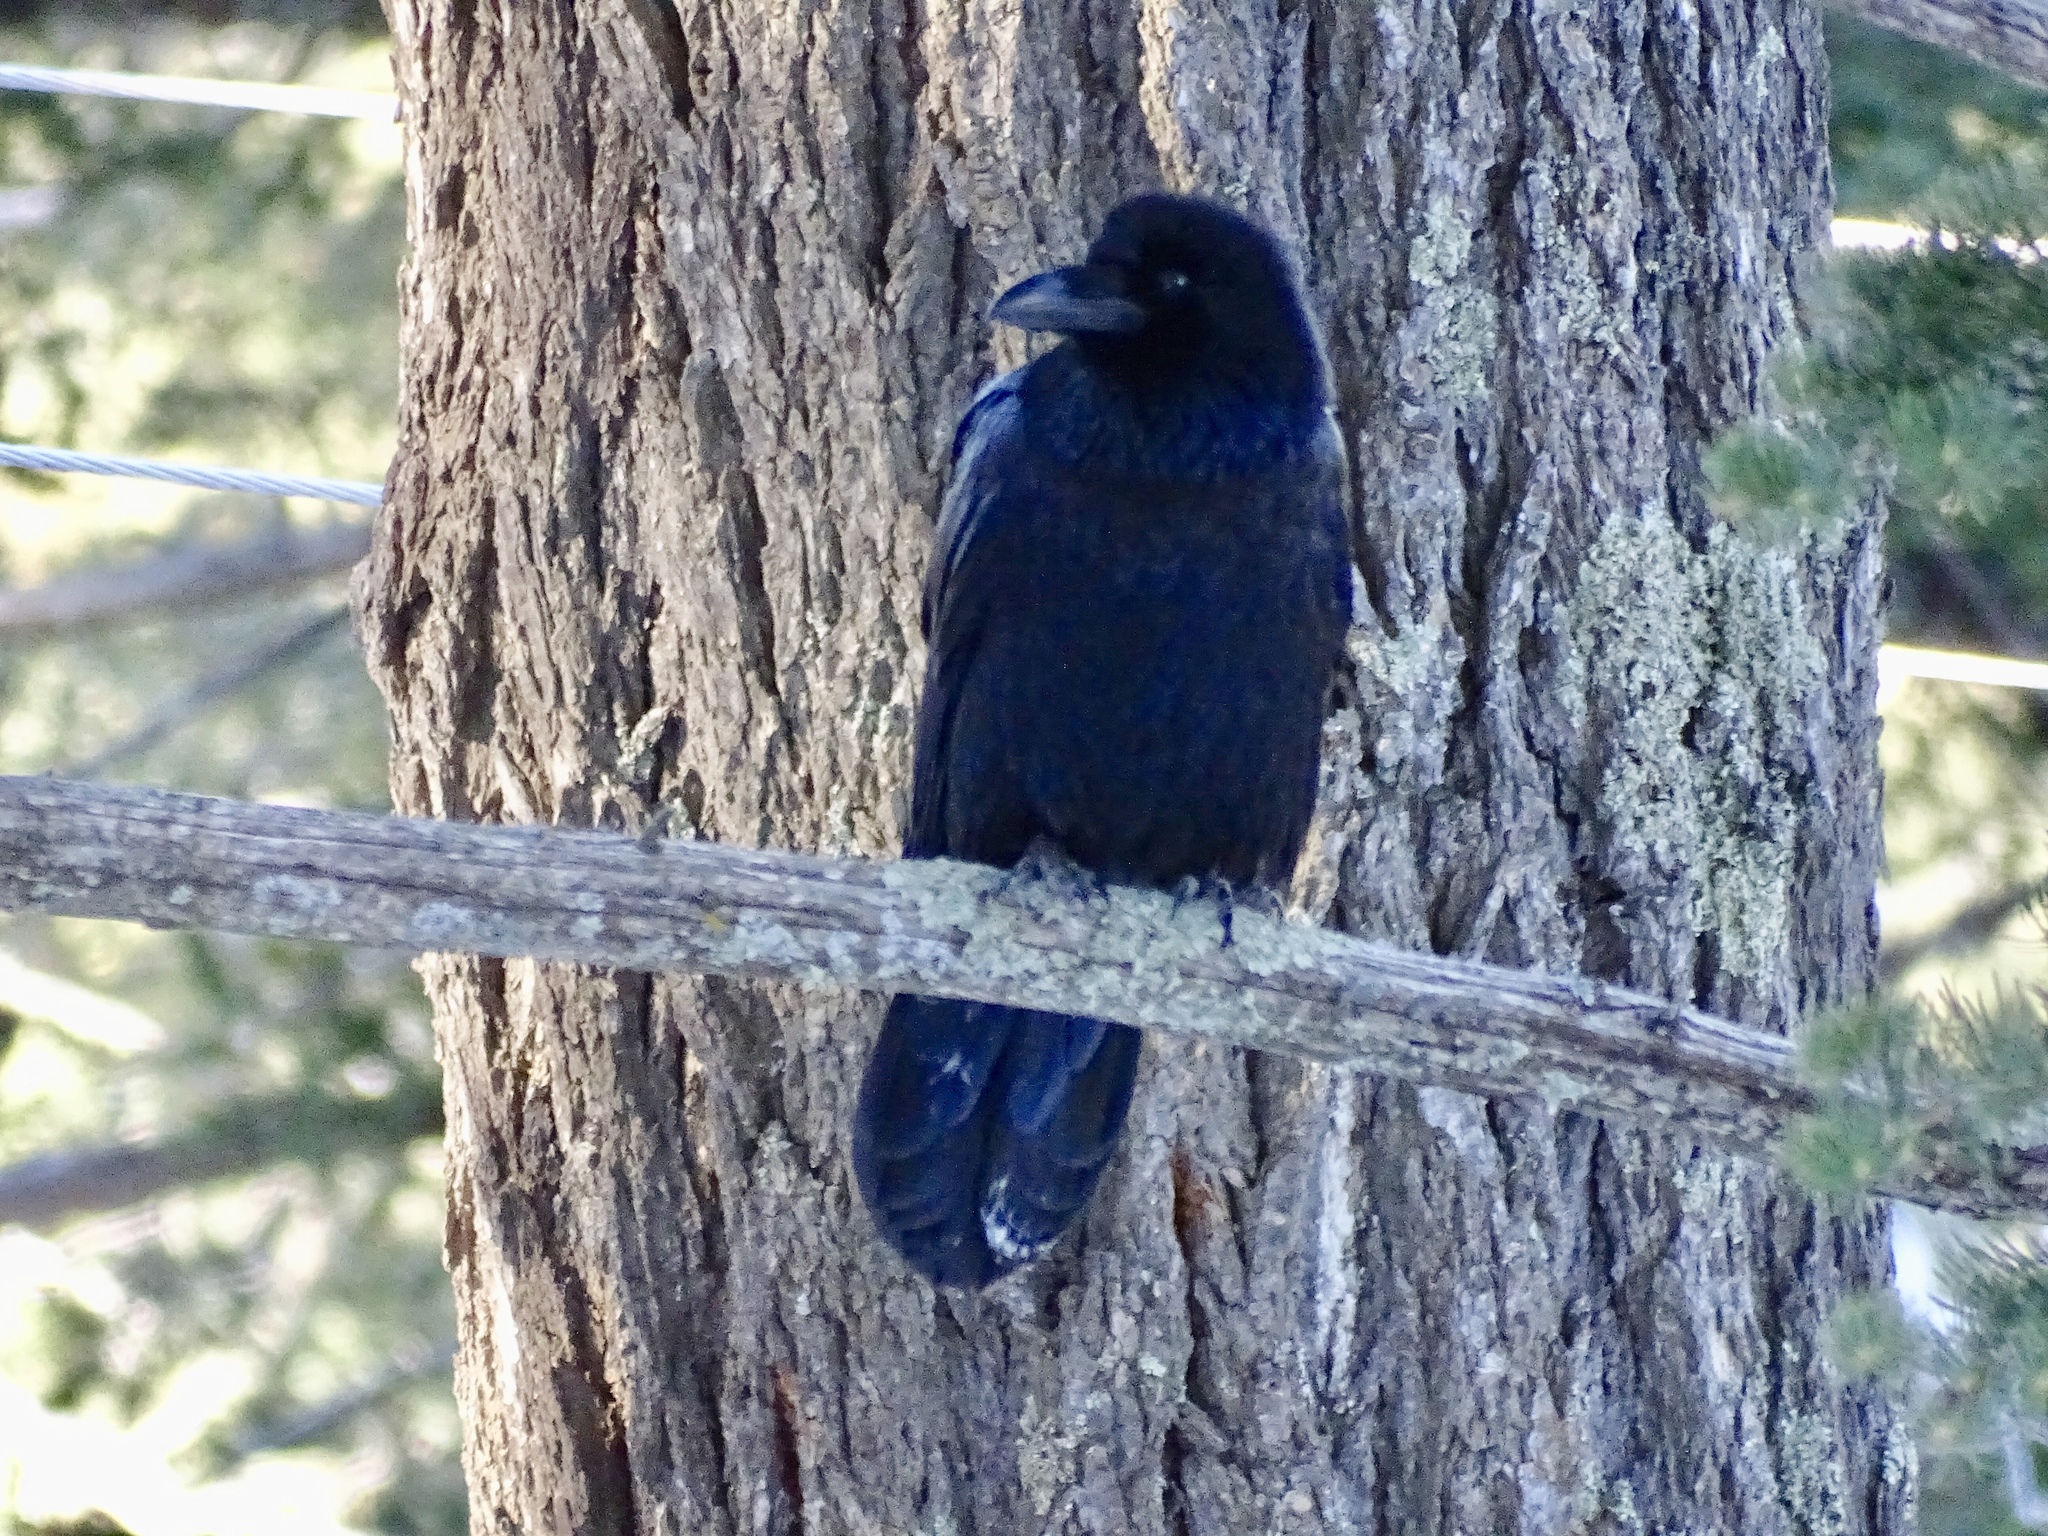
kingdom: Animalia
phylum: Chordata
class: Aves
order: Passeriformes
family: Corvidae
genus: Corvus
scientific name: Corvus corax
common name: Common raven
